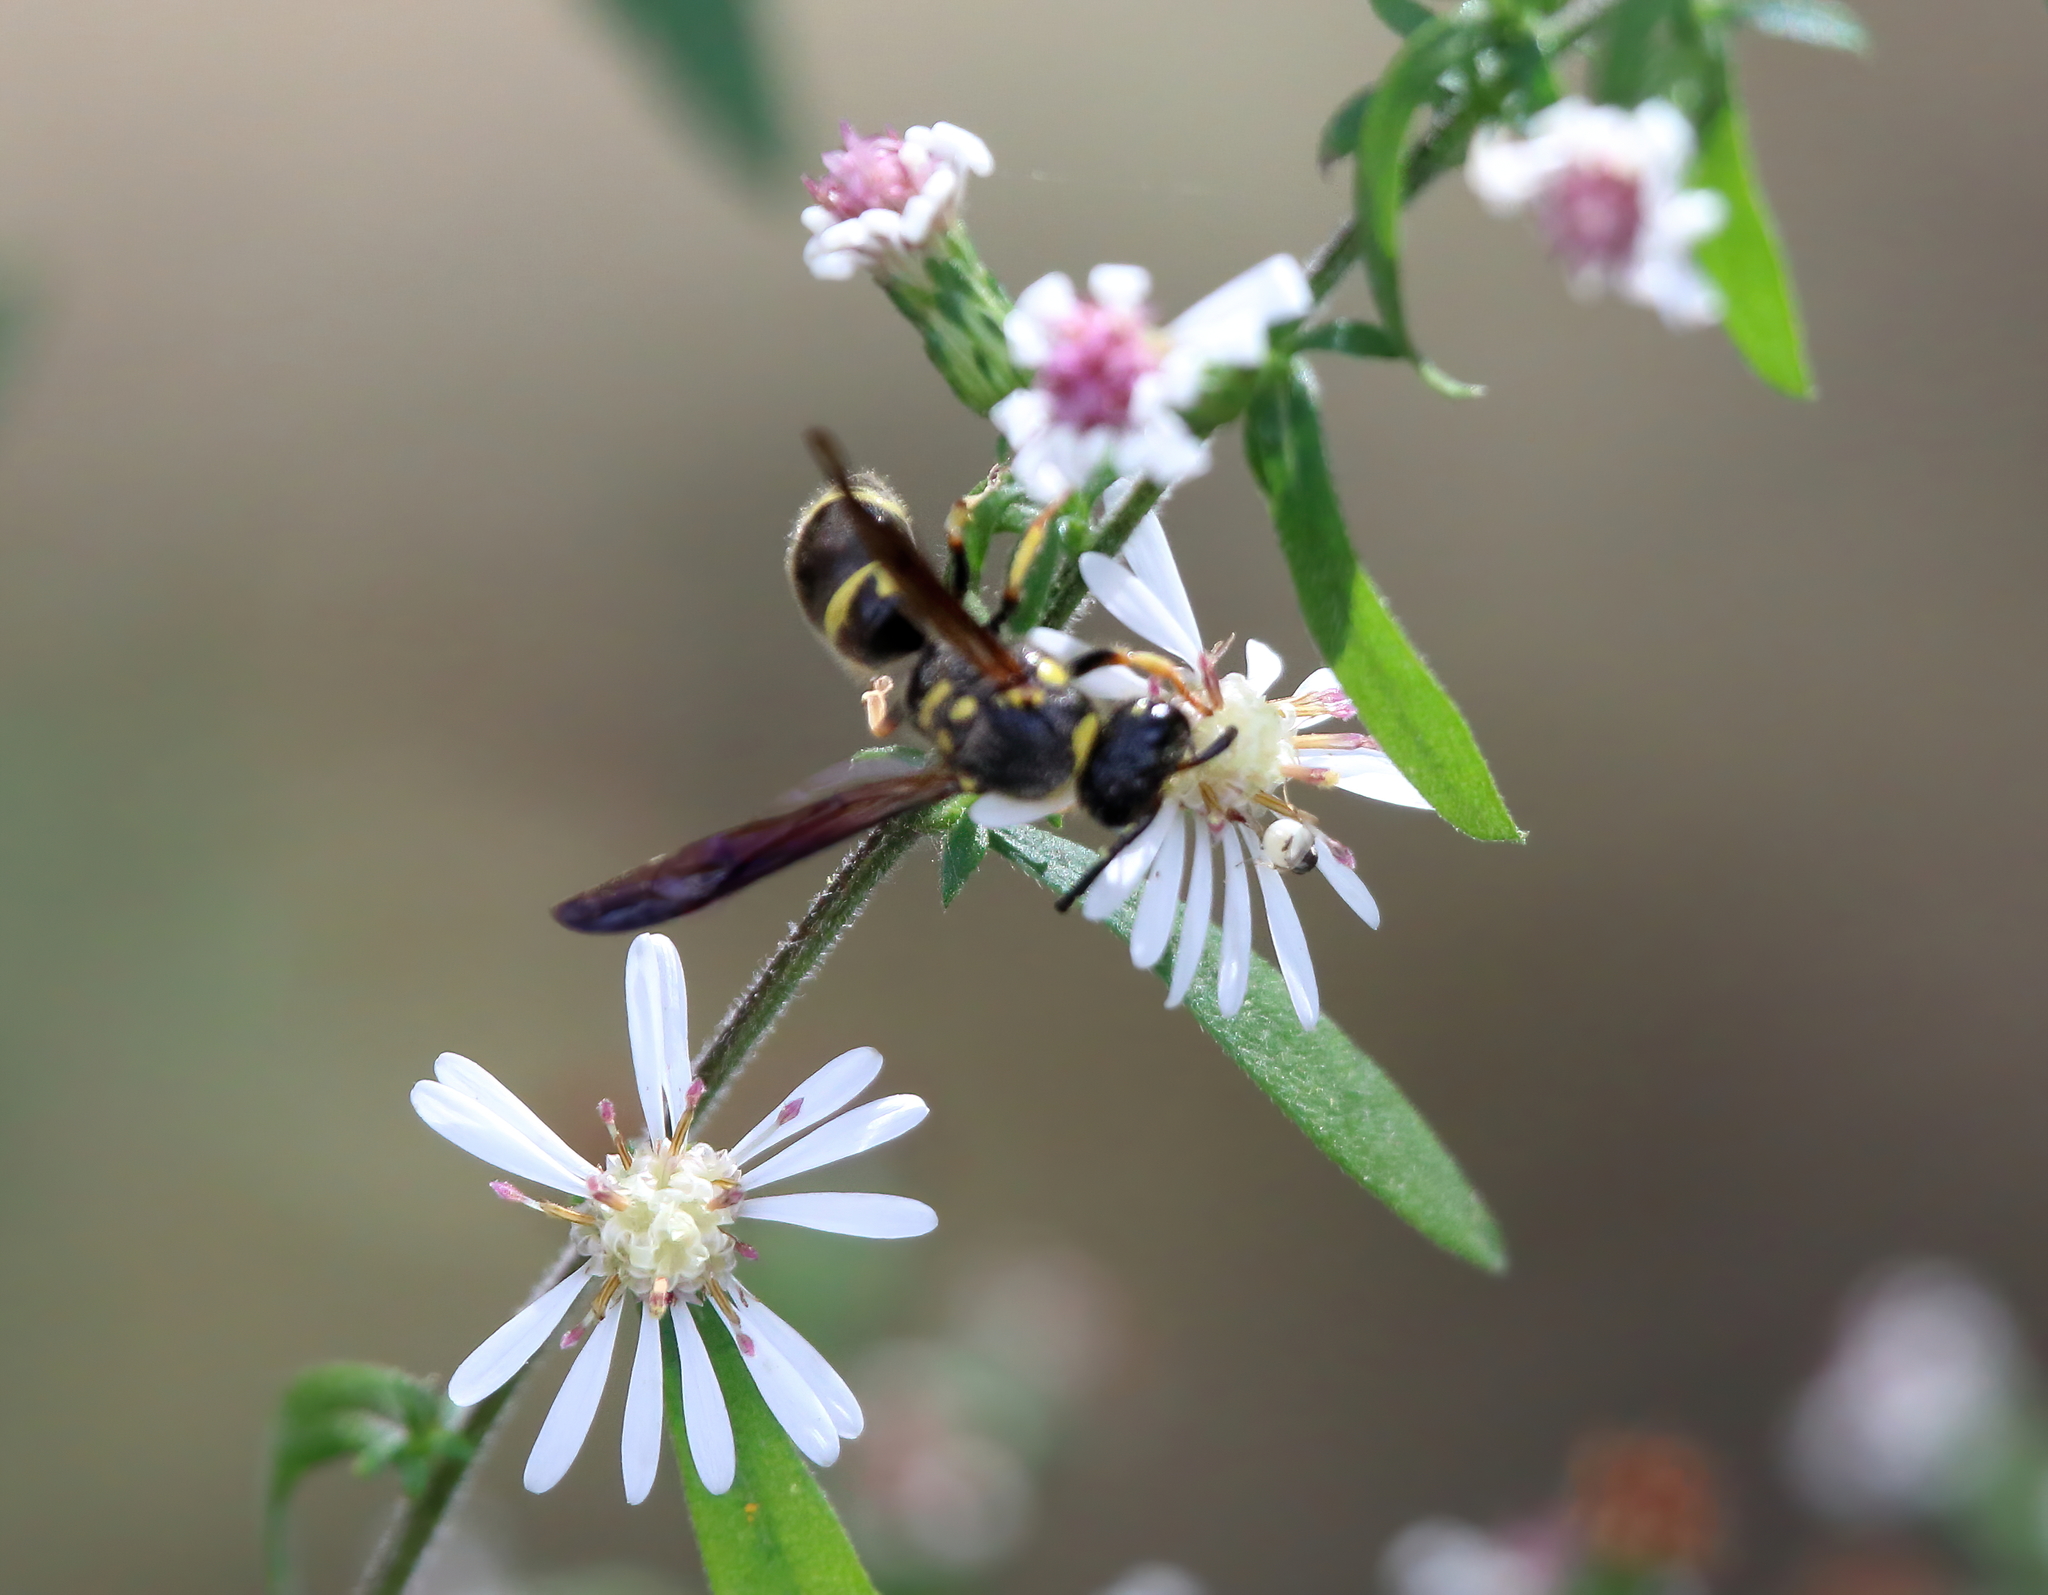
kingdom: Animalia
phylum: Arthropoda
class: Insecta
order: Hymenoptera
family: Vespidae
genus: Ancistrocerus
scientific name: Ancistrocerus campestris
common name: Smiling mason wasp
